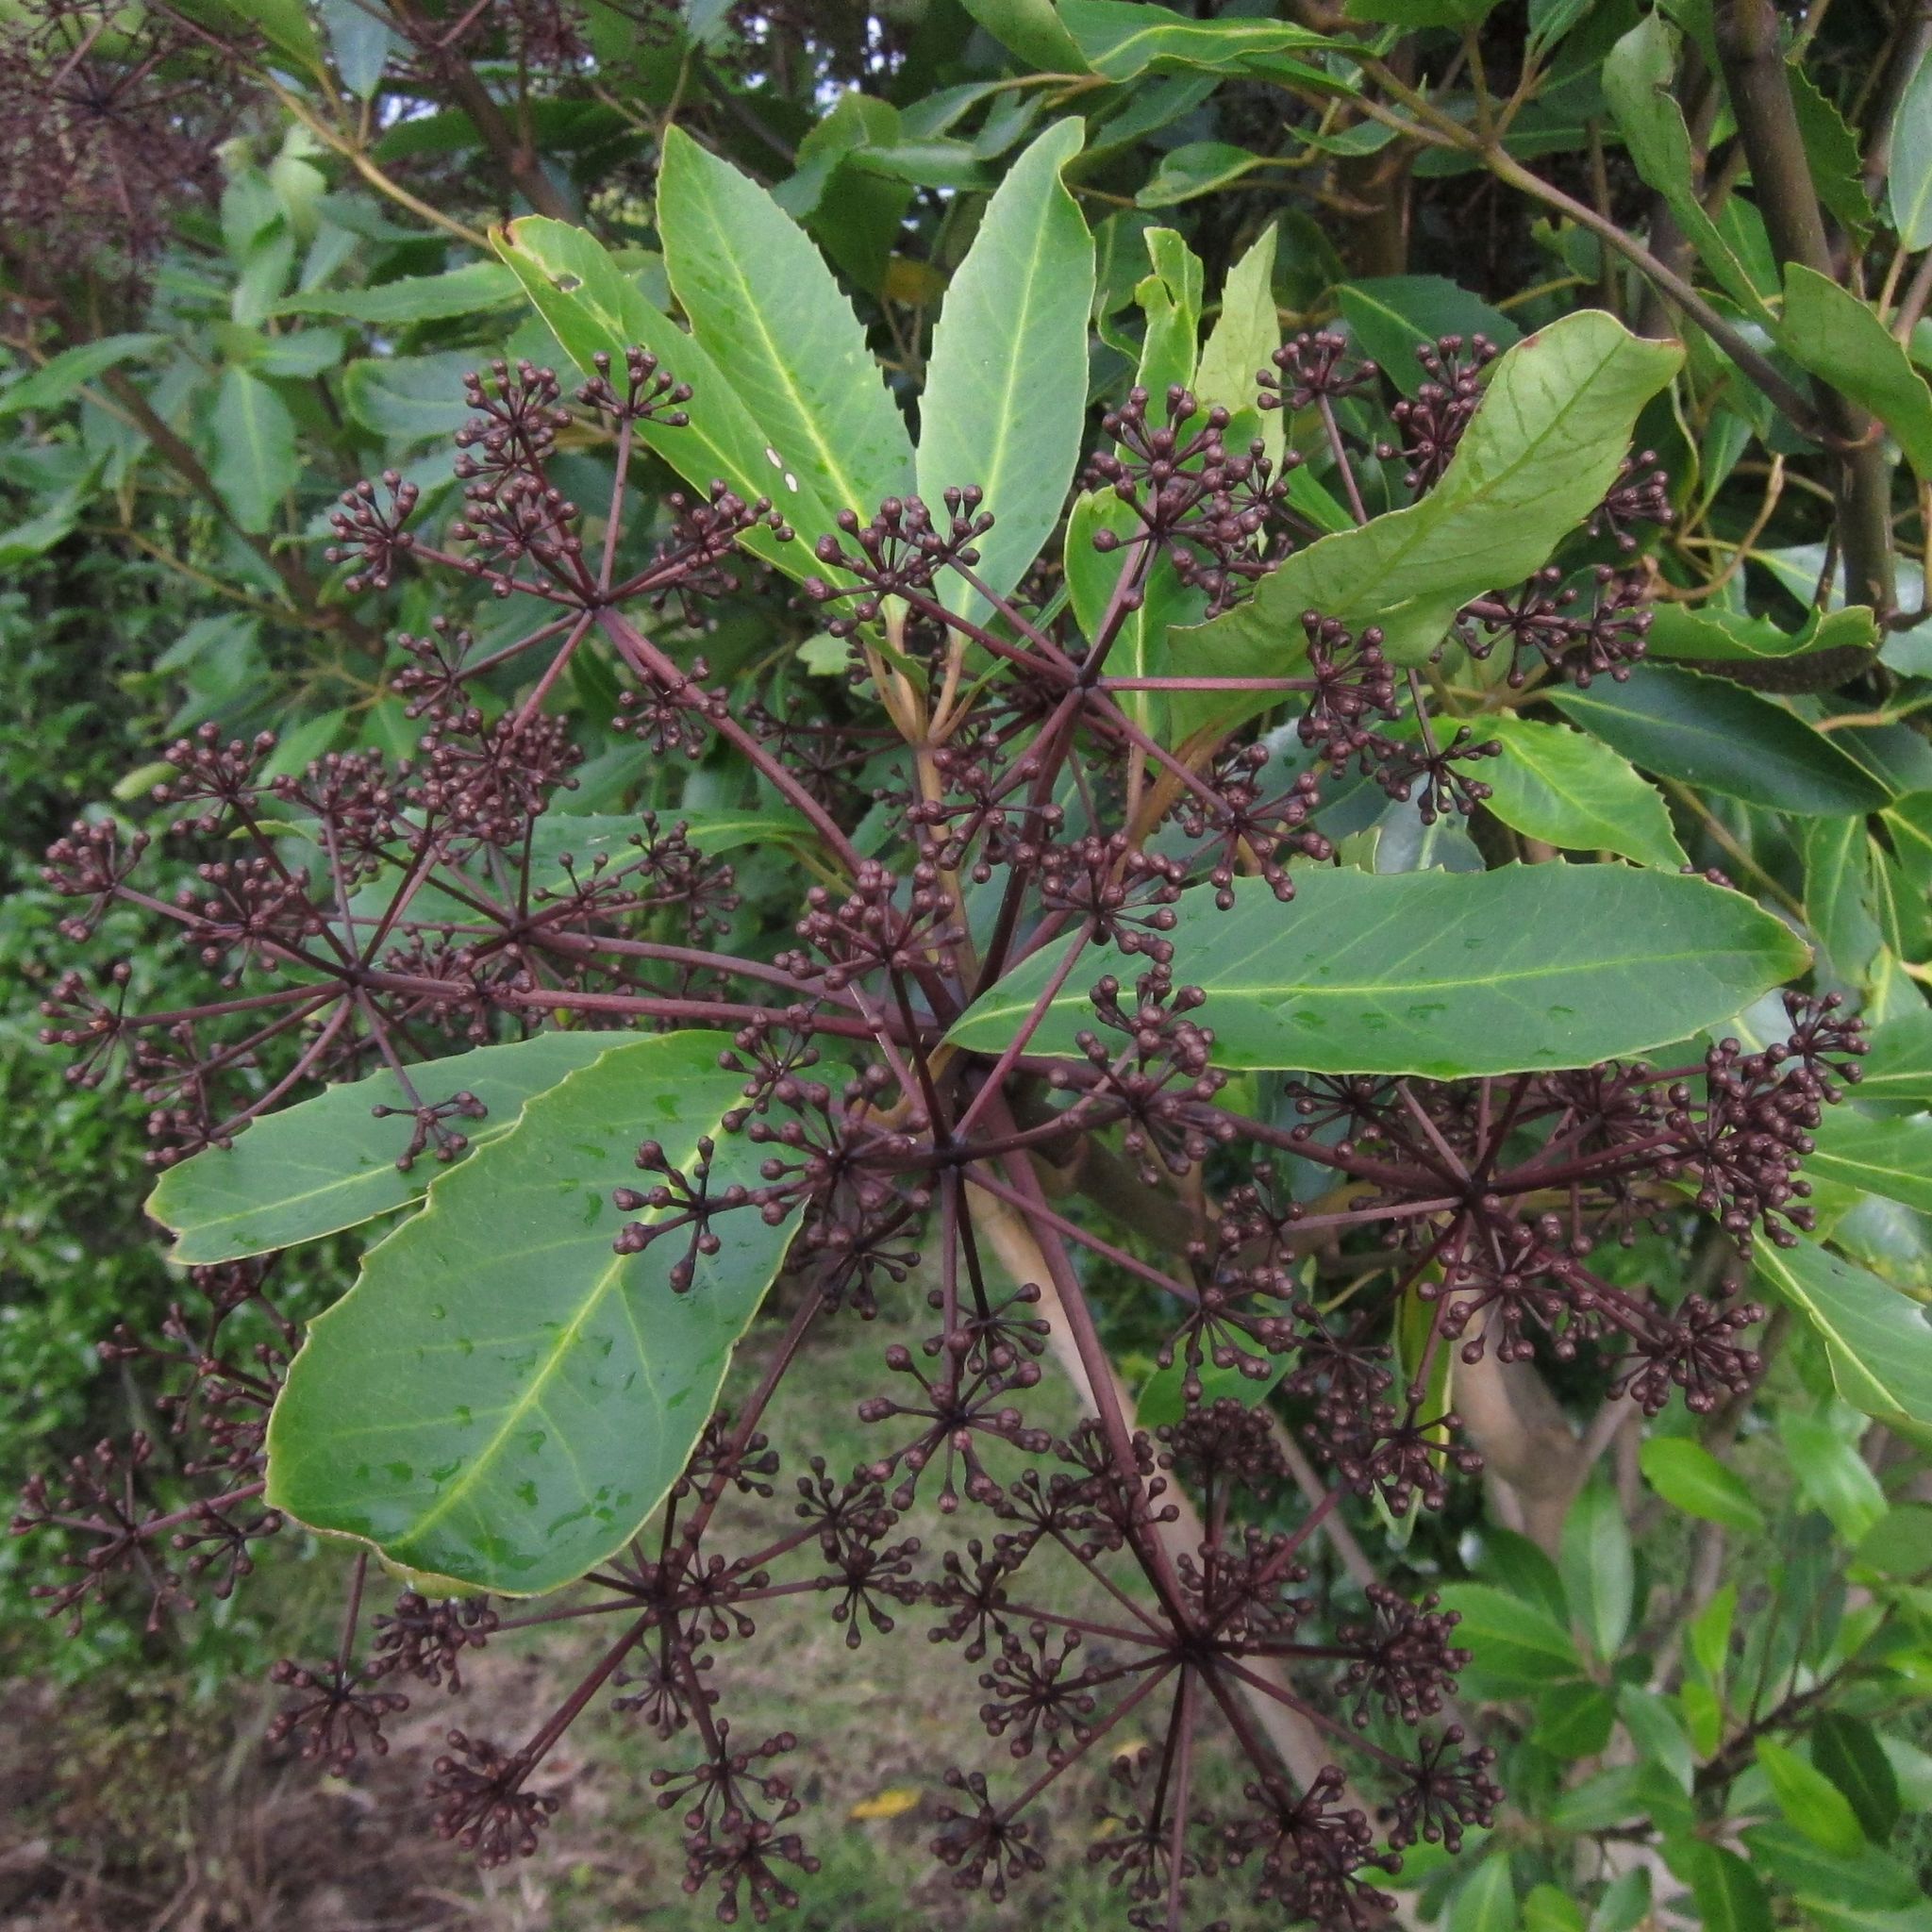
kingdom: Plantae
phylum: Tracheophyta
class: Magnoliopsida
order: Apiales
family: Araliaceae
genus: Neopanax
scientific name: Neopanax colensoi
